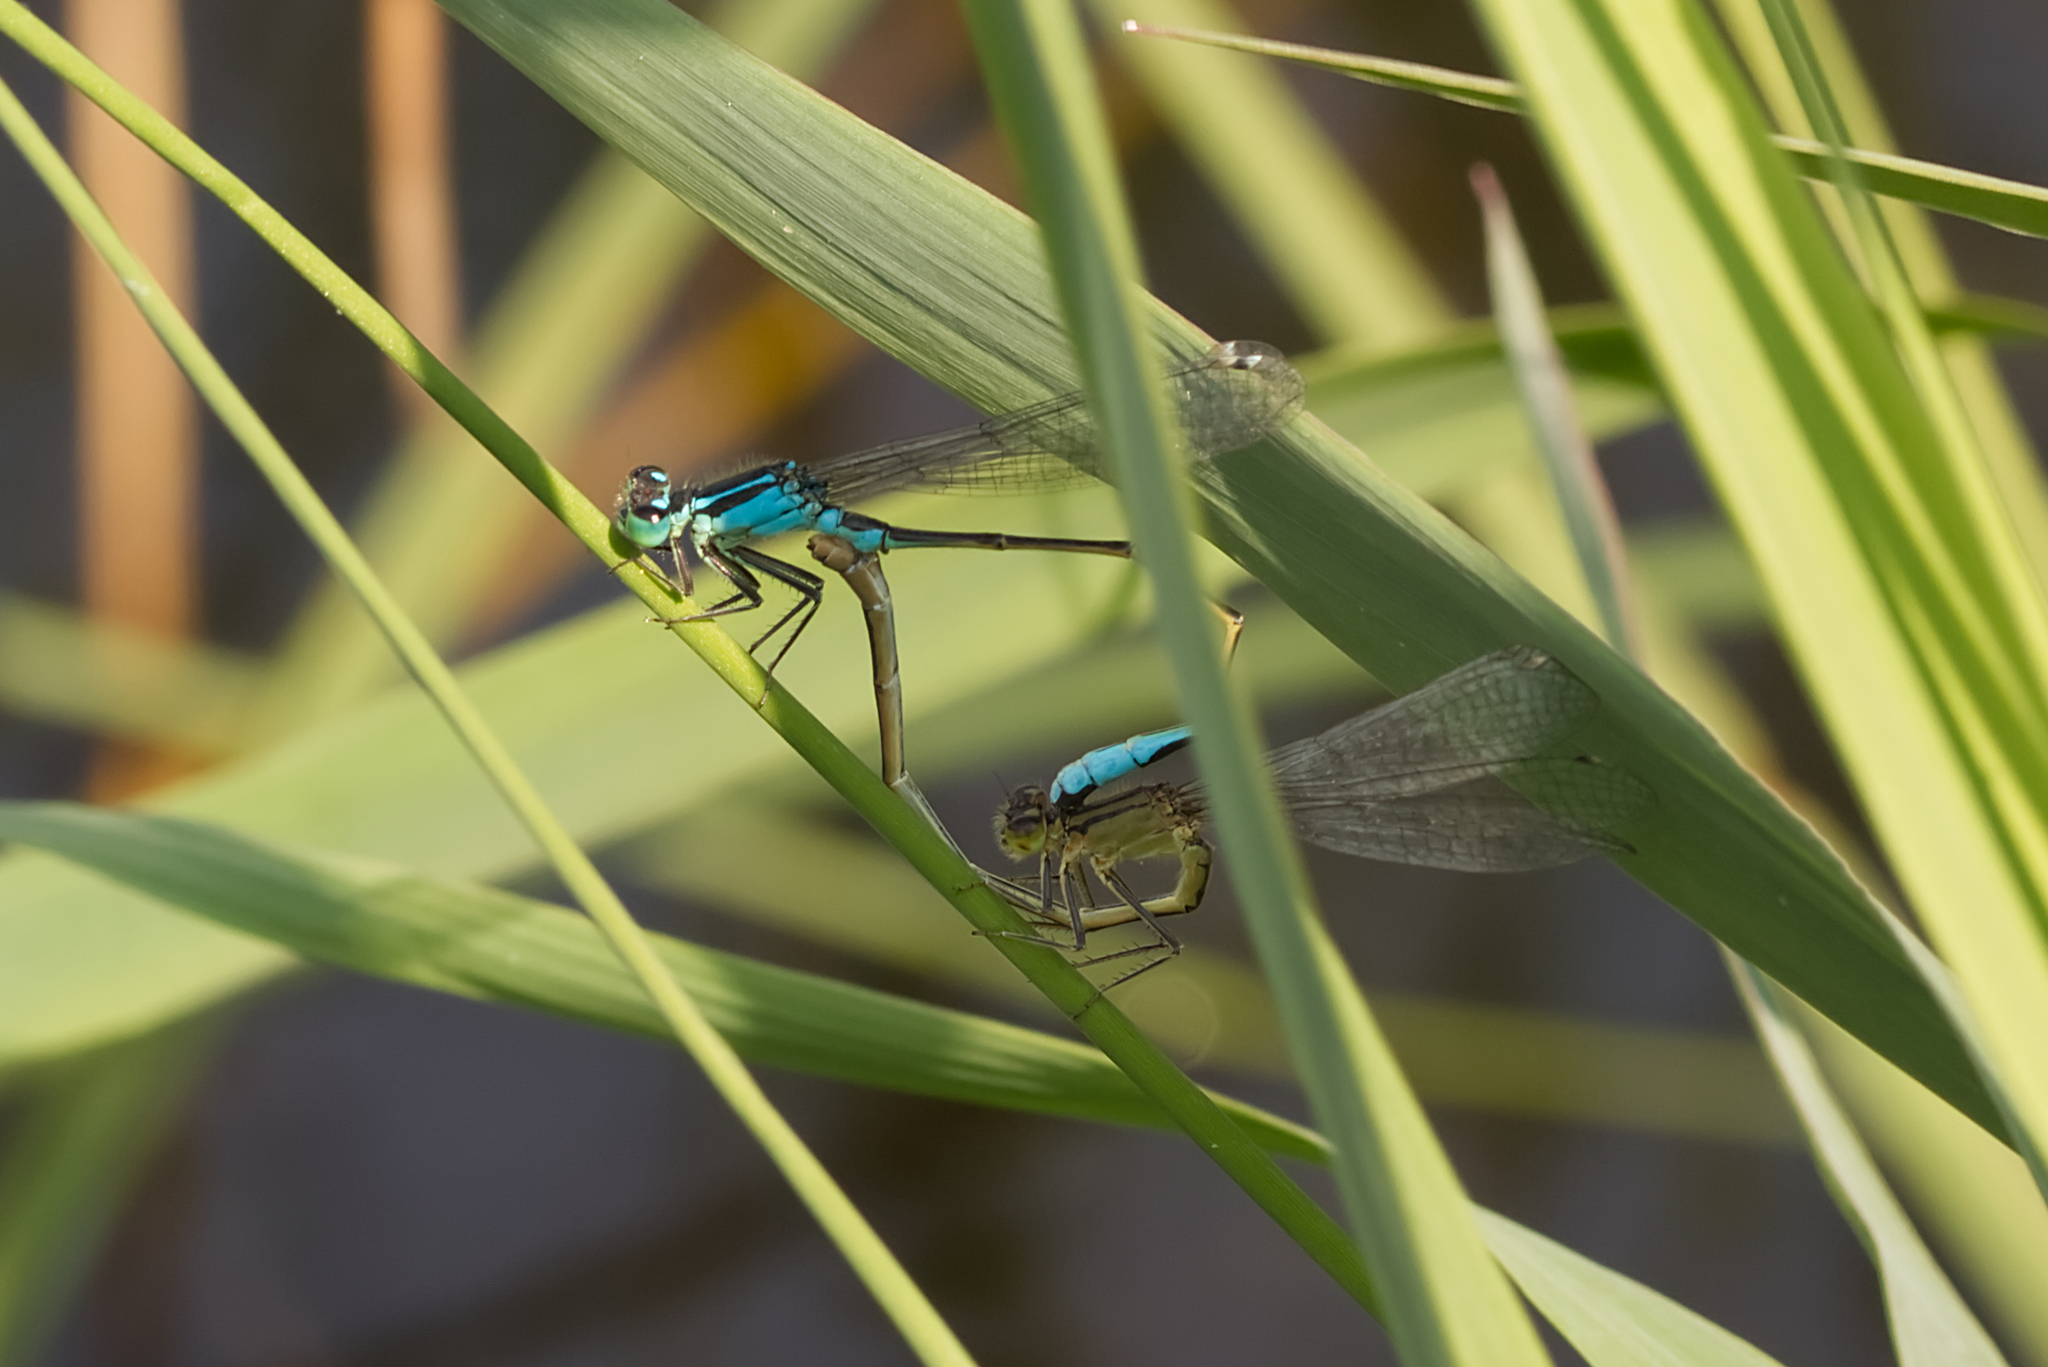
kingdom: Animalia
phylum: Arthropoda
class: Insecta
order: Odonata
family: Coenagrionidae
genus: Ischnura
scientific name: Ischnura elegans
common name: Blue-tailed damselfly
